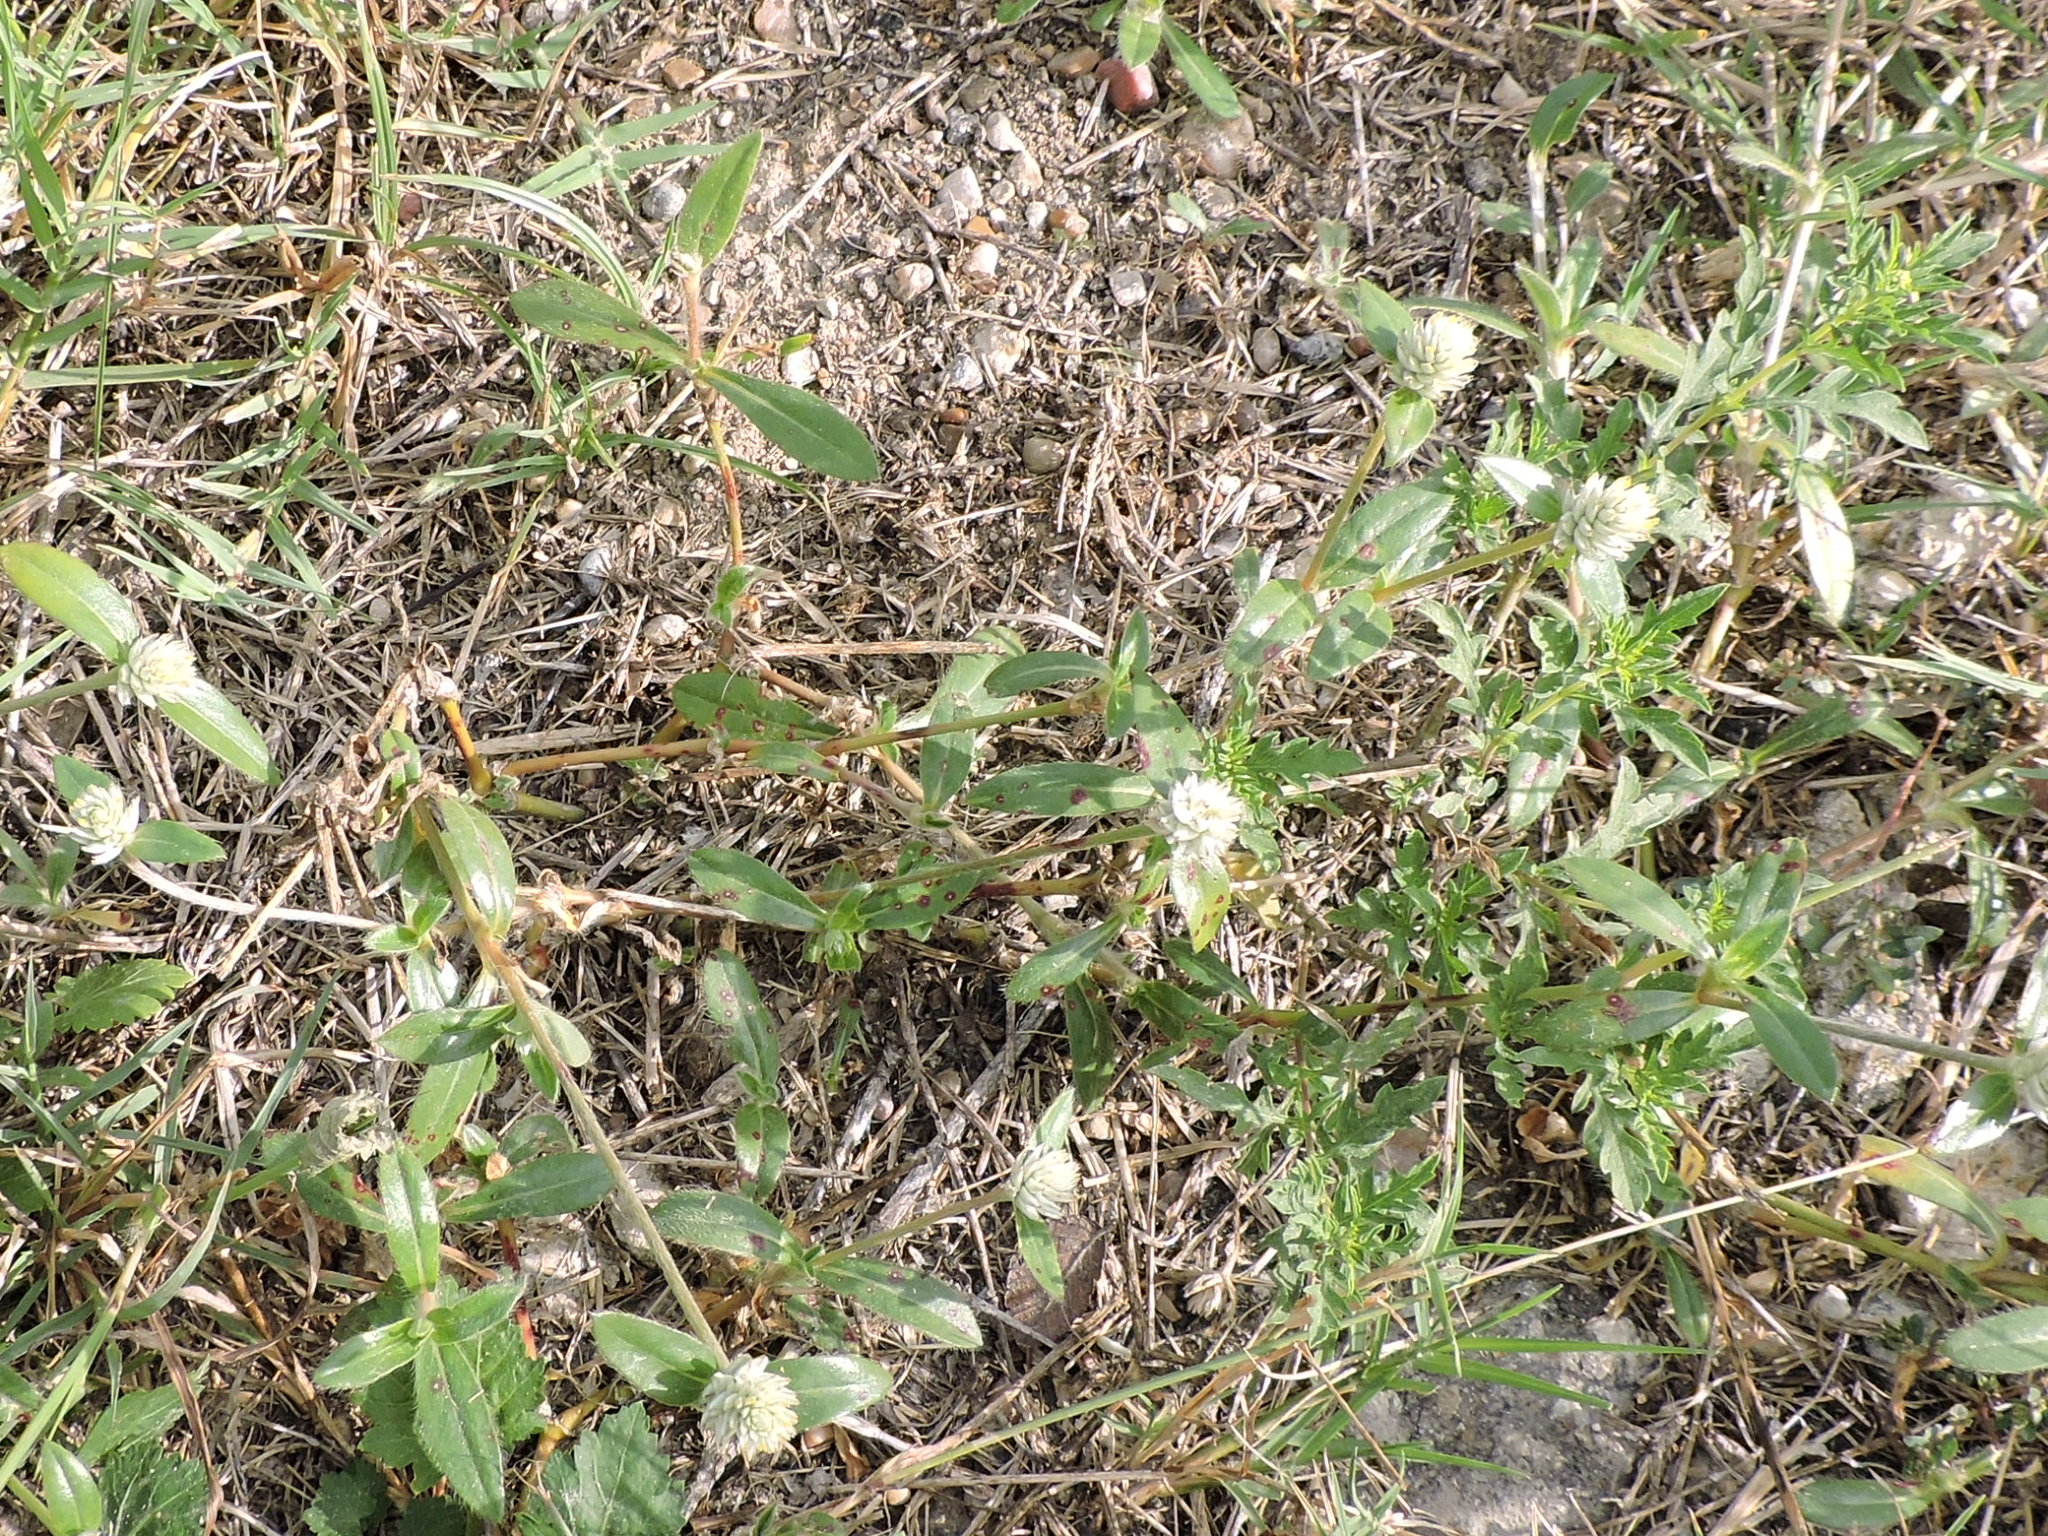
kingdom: Plantae
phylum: Tracheophyta
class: Magnoliopsida
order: Caryophyllales
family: Amaranthaceae
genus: Gomphrena
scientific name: Gomphrena serrata
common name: Arrasa con todo
